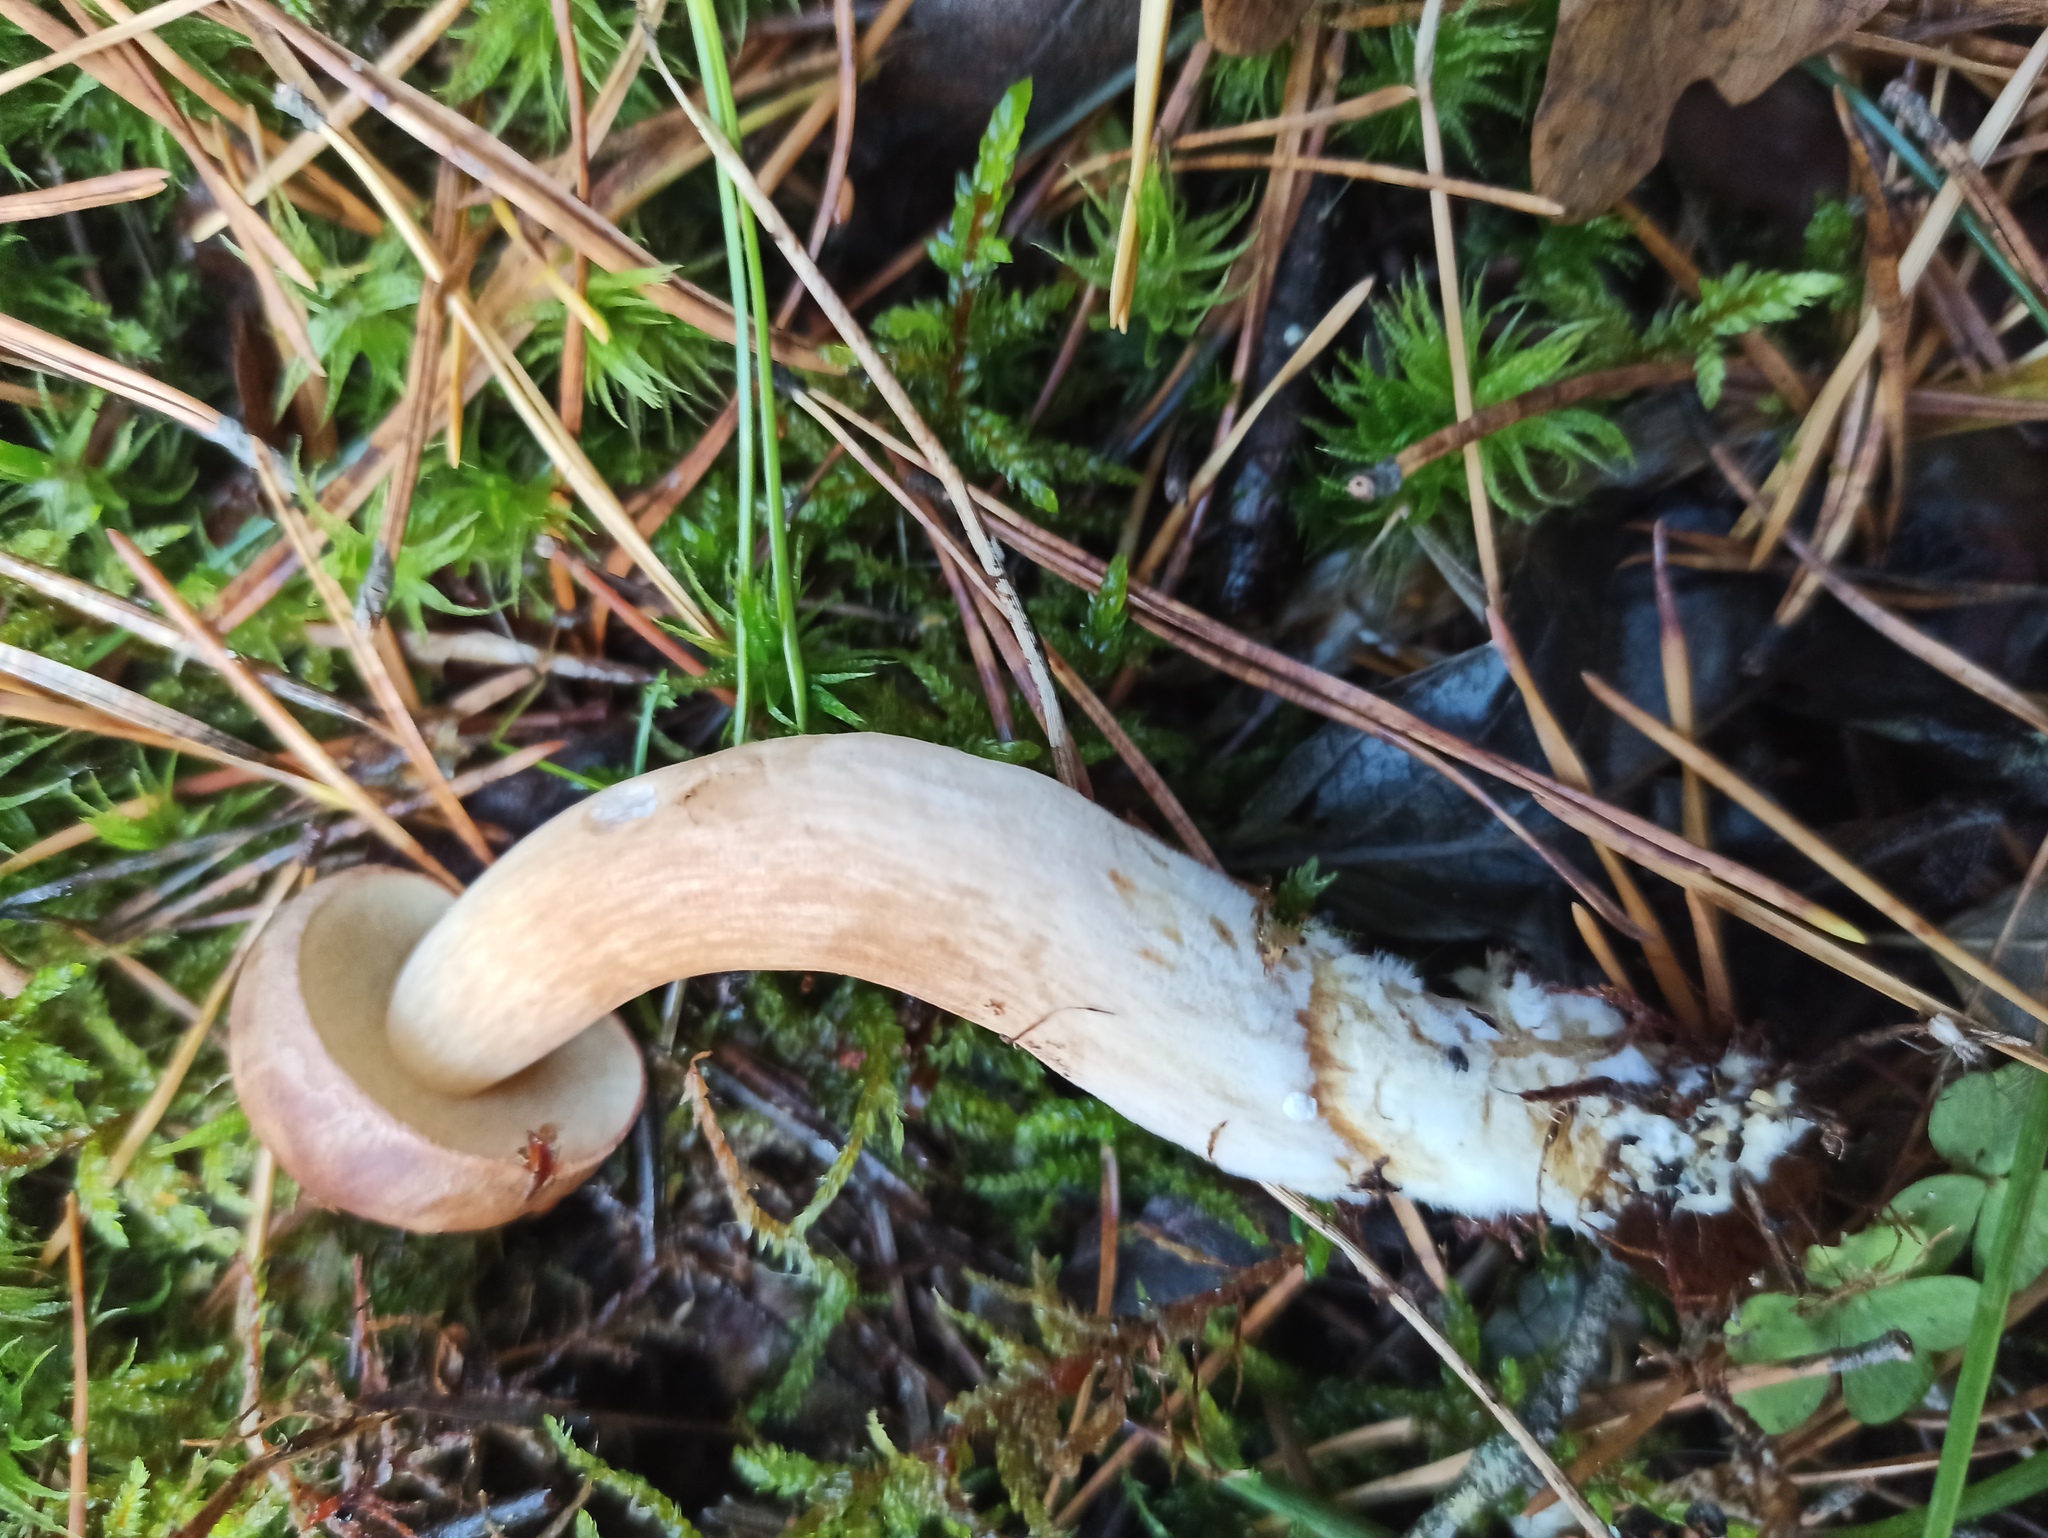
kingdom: Fungi
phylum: Basidiomycota
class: Agaricomycetes
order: Boletales
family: Boletaceae
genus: Imleria
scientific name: Imleria badia
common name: Bay bolete
